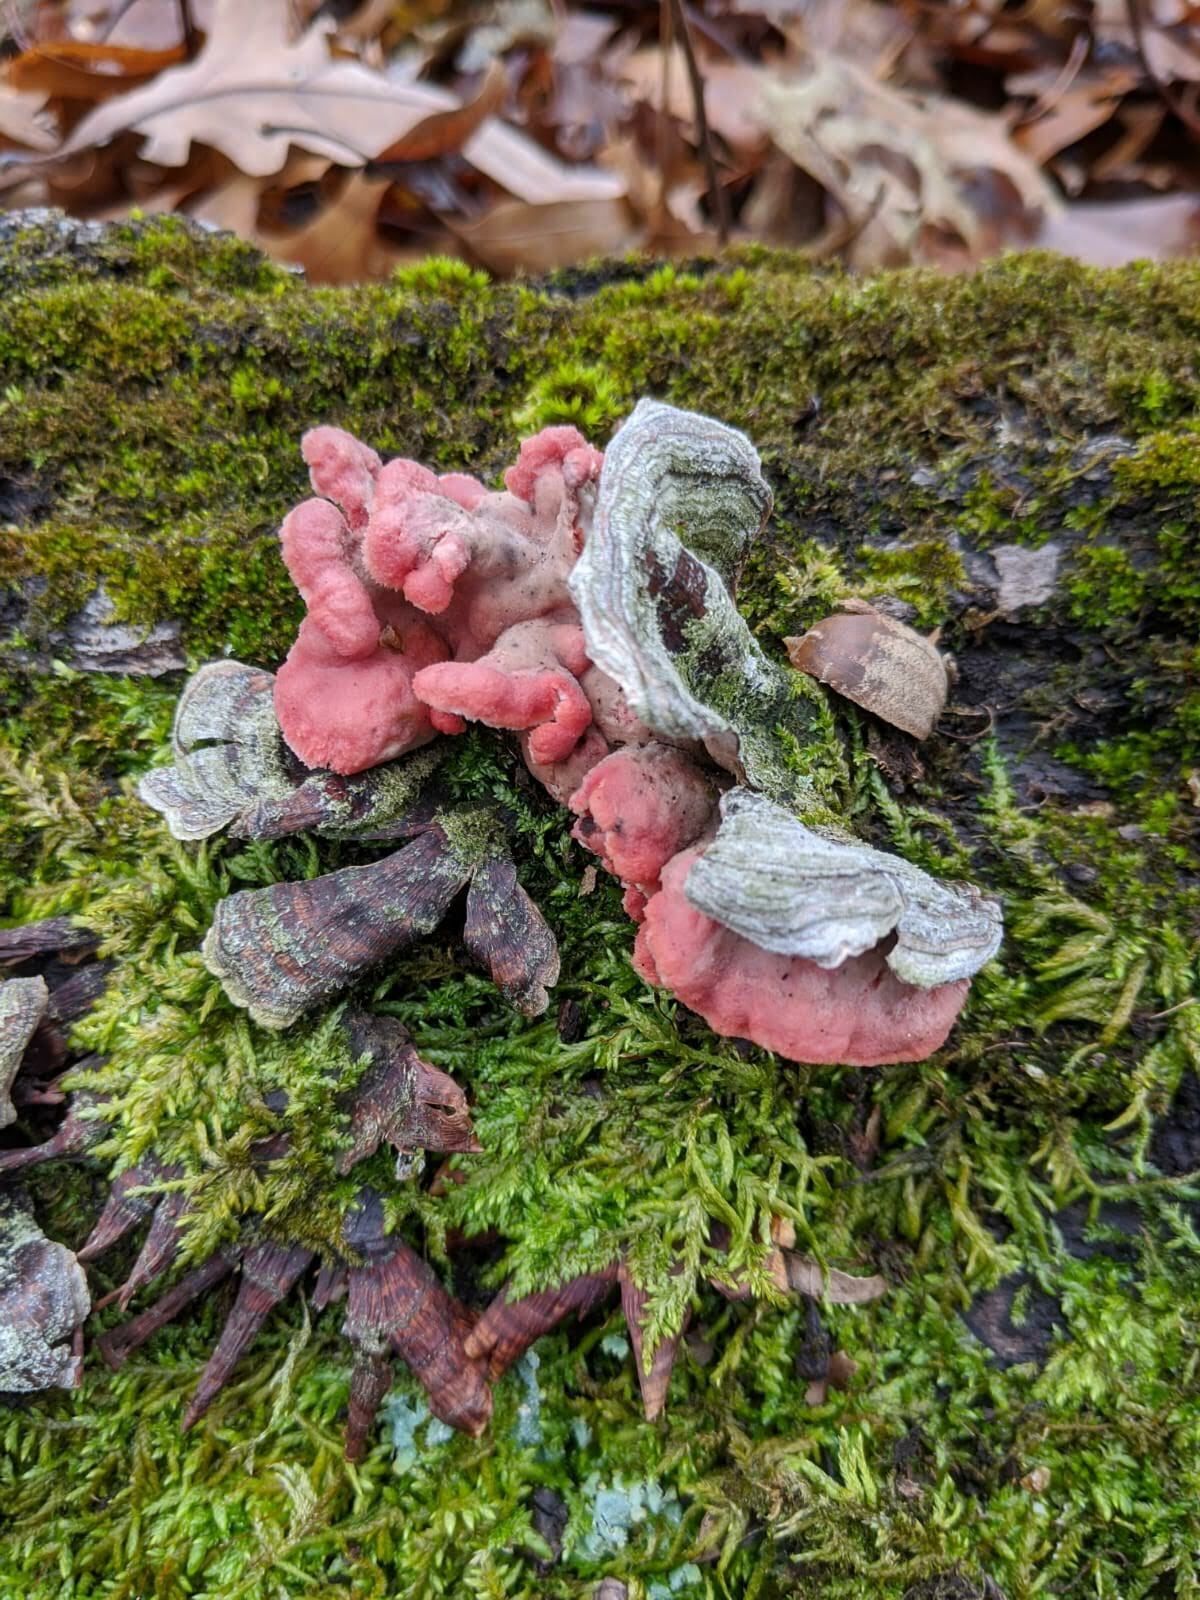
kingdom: Fungi
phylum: Basidiomycota
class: Agaricomycetes
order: Polyporales
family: Irpicaceae
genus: Byssomerulius
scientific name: Byssomerulius incarnatus
